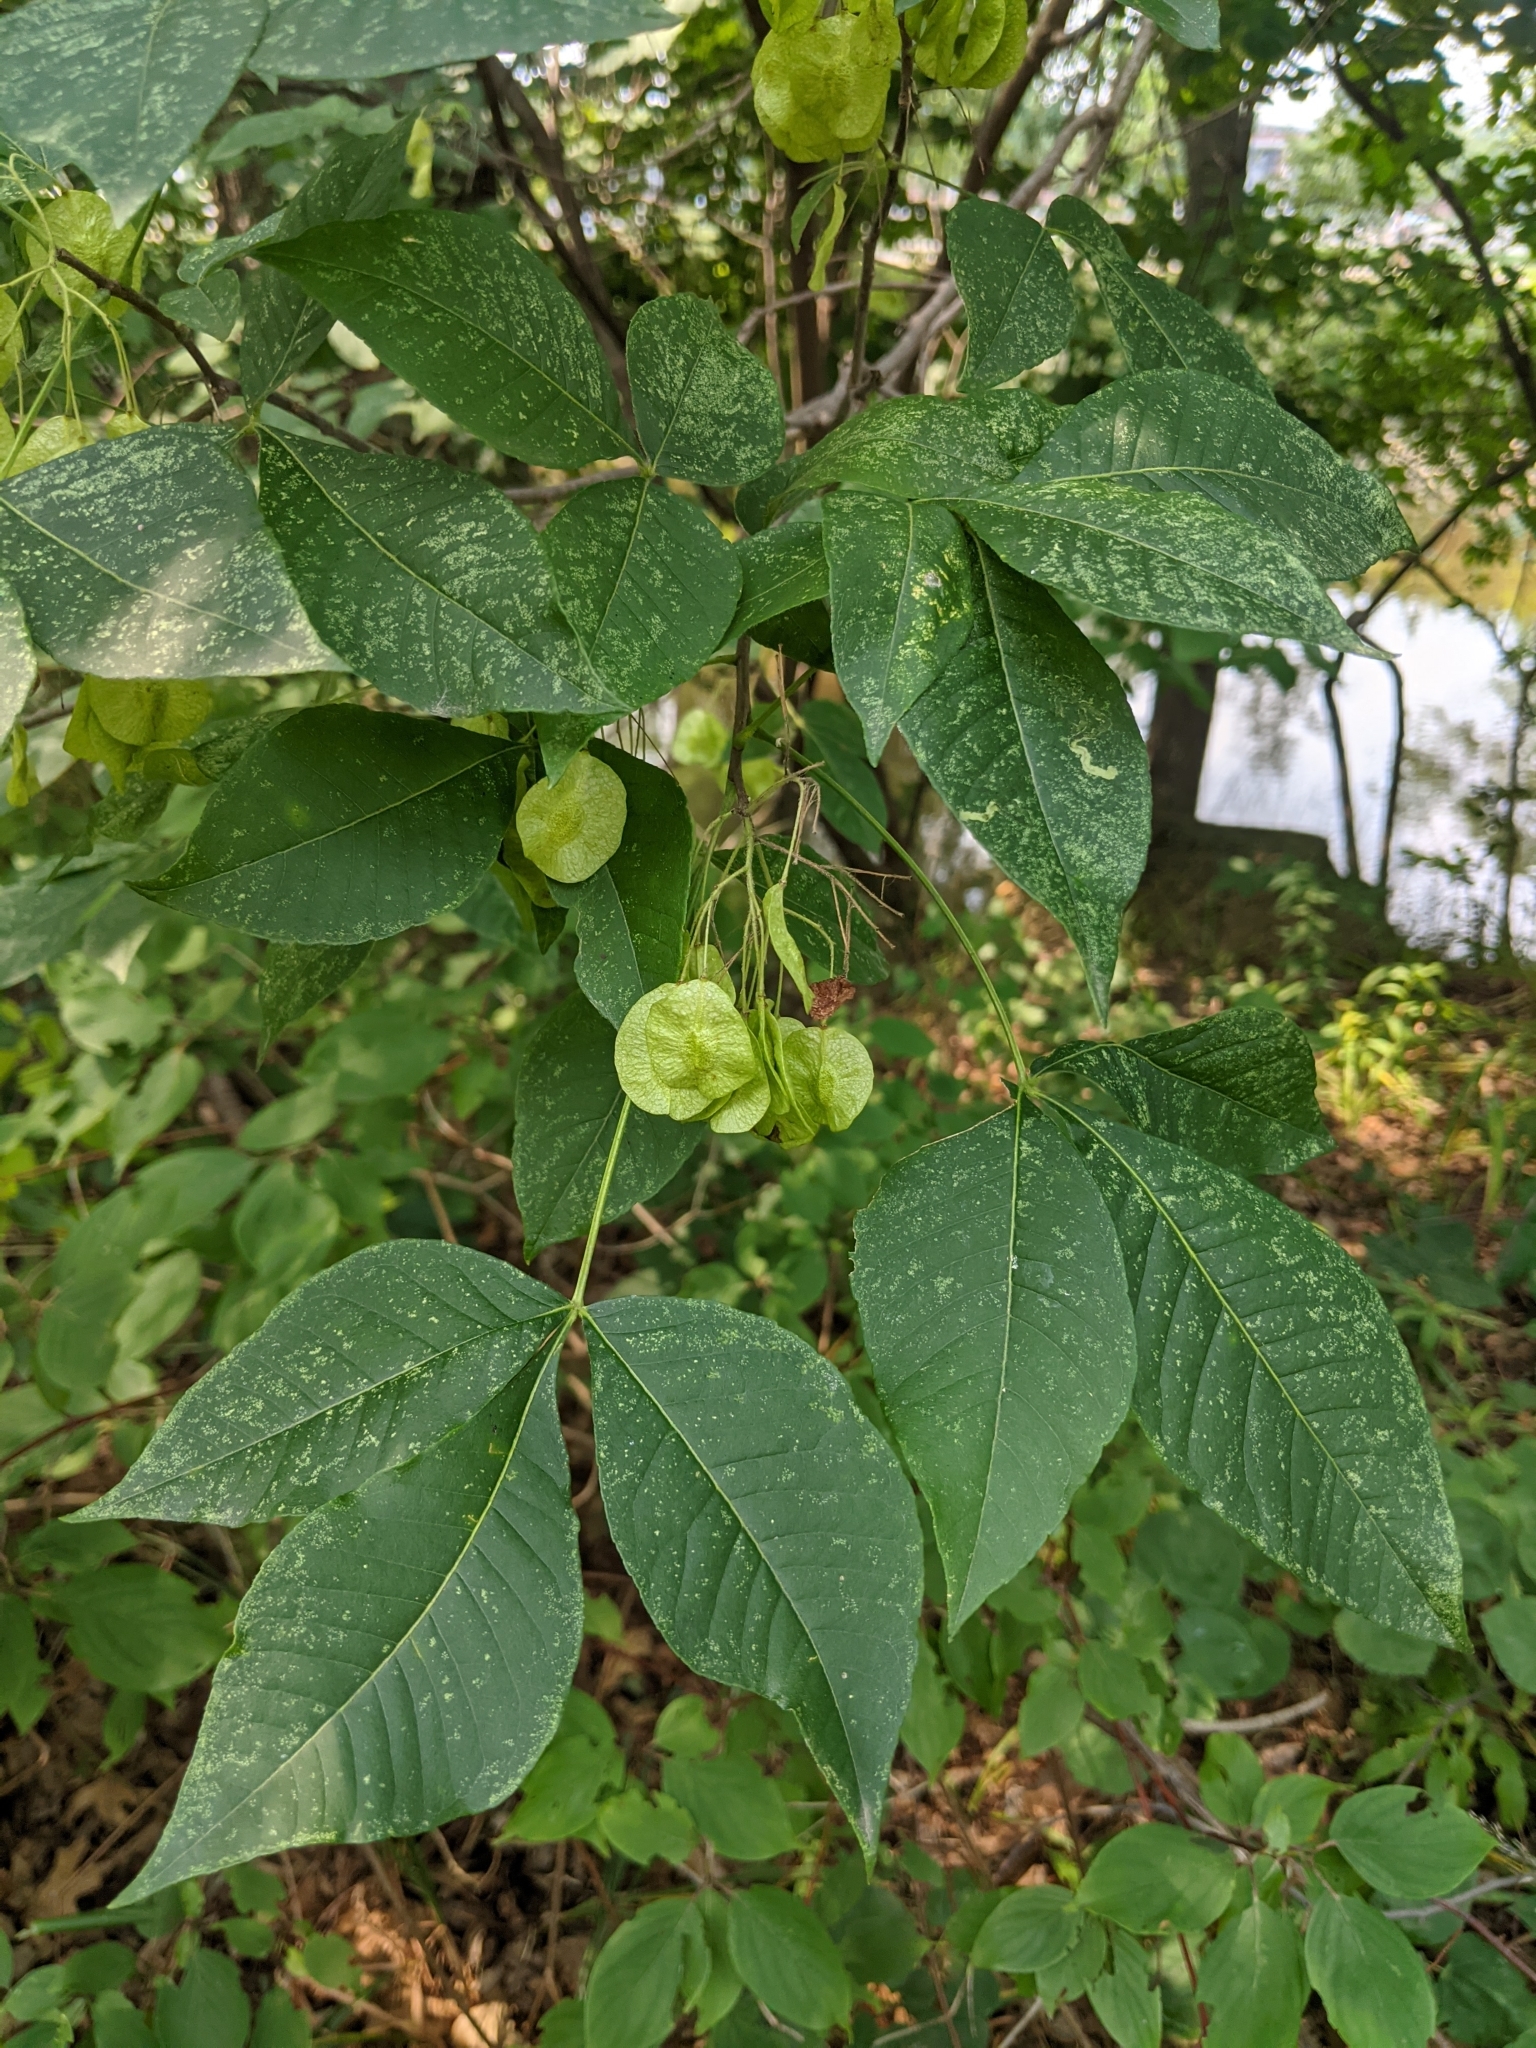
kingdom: Plantae
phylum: Tracheophyta
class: Magnoliopsida
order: Sapindales
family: Rutaceae
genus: Ptelea
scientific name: Ptelea trifoliata
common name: Common hop-tree
